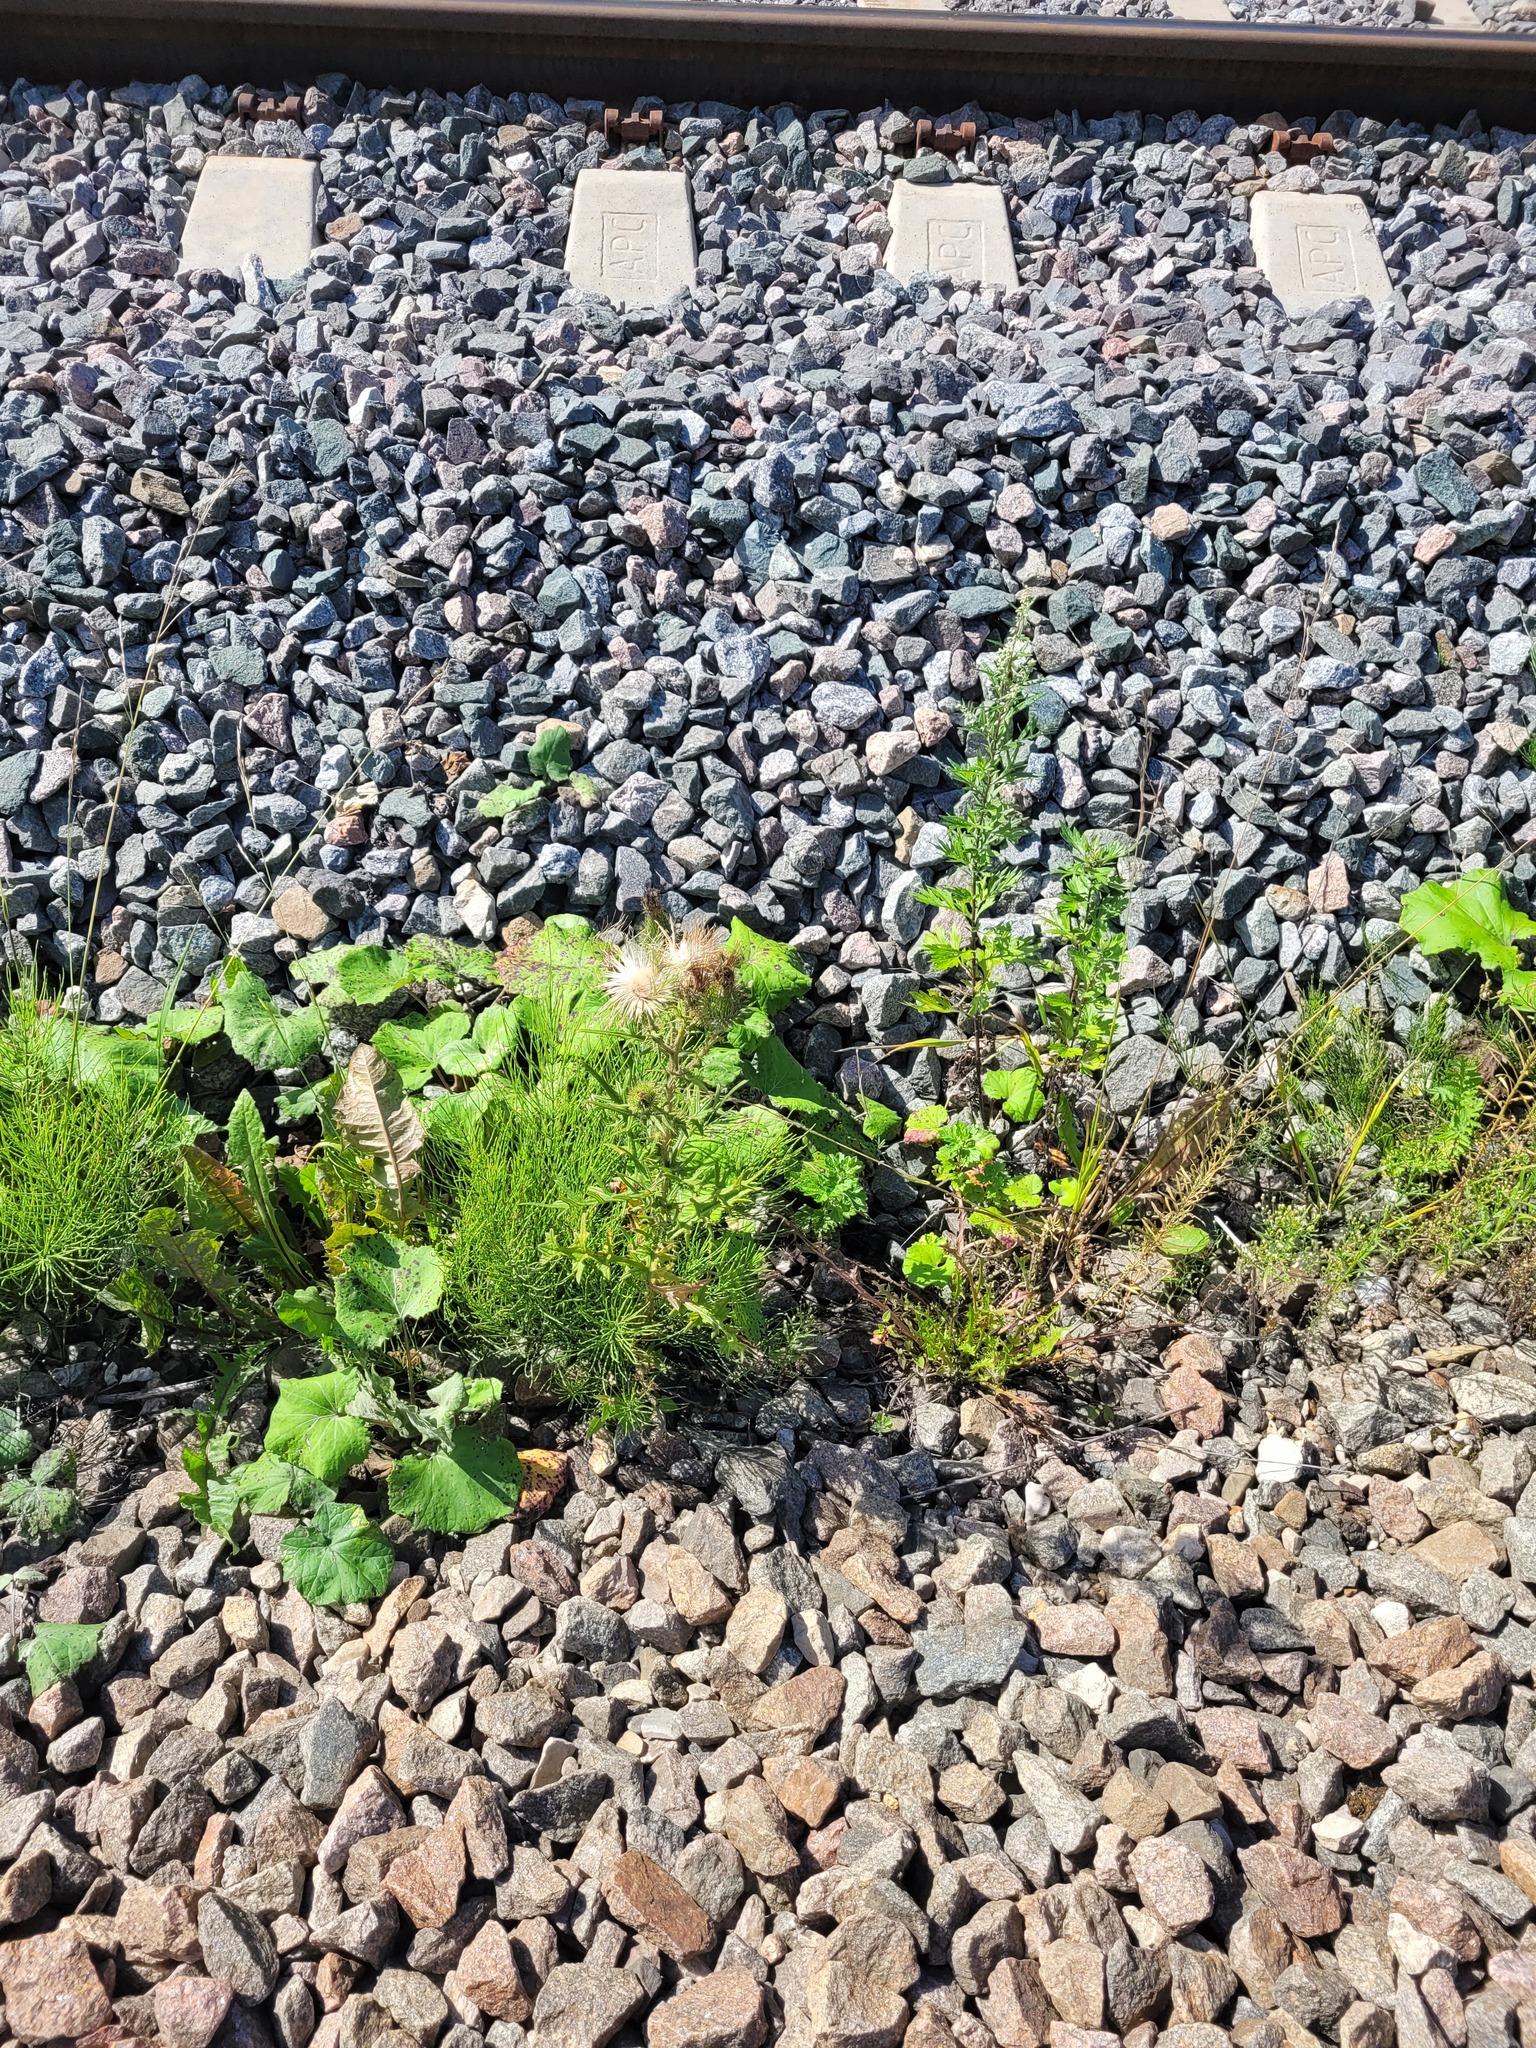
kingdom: Plantae
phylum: Tracheophyta
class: Magnoliopsida
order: Asterales
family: Asteraceae
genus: Cirsium
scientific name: Cirsium vulgare
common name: Bull thistle
